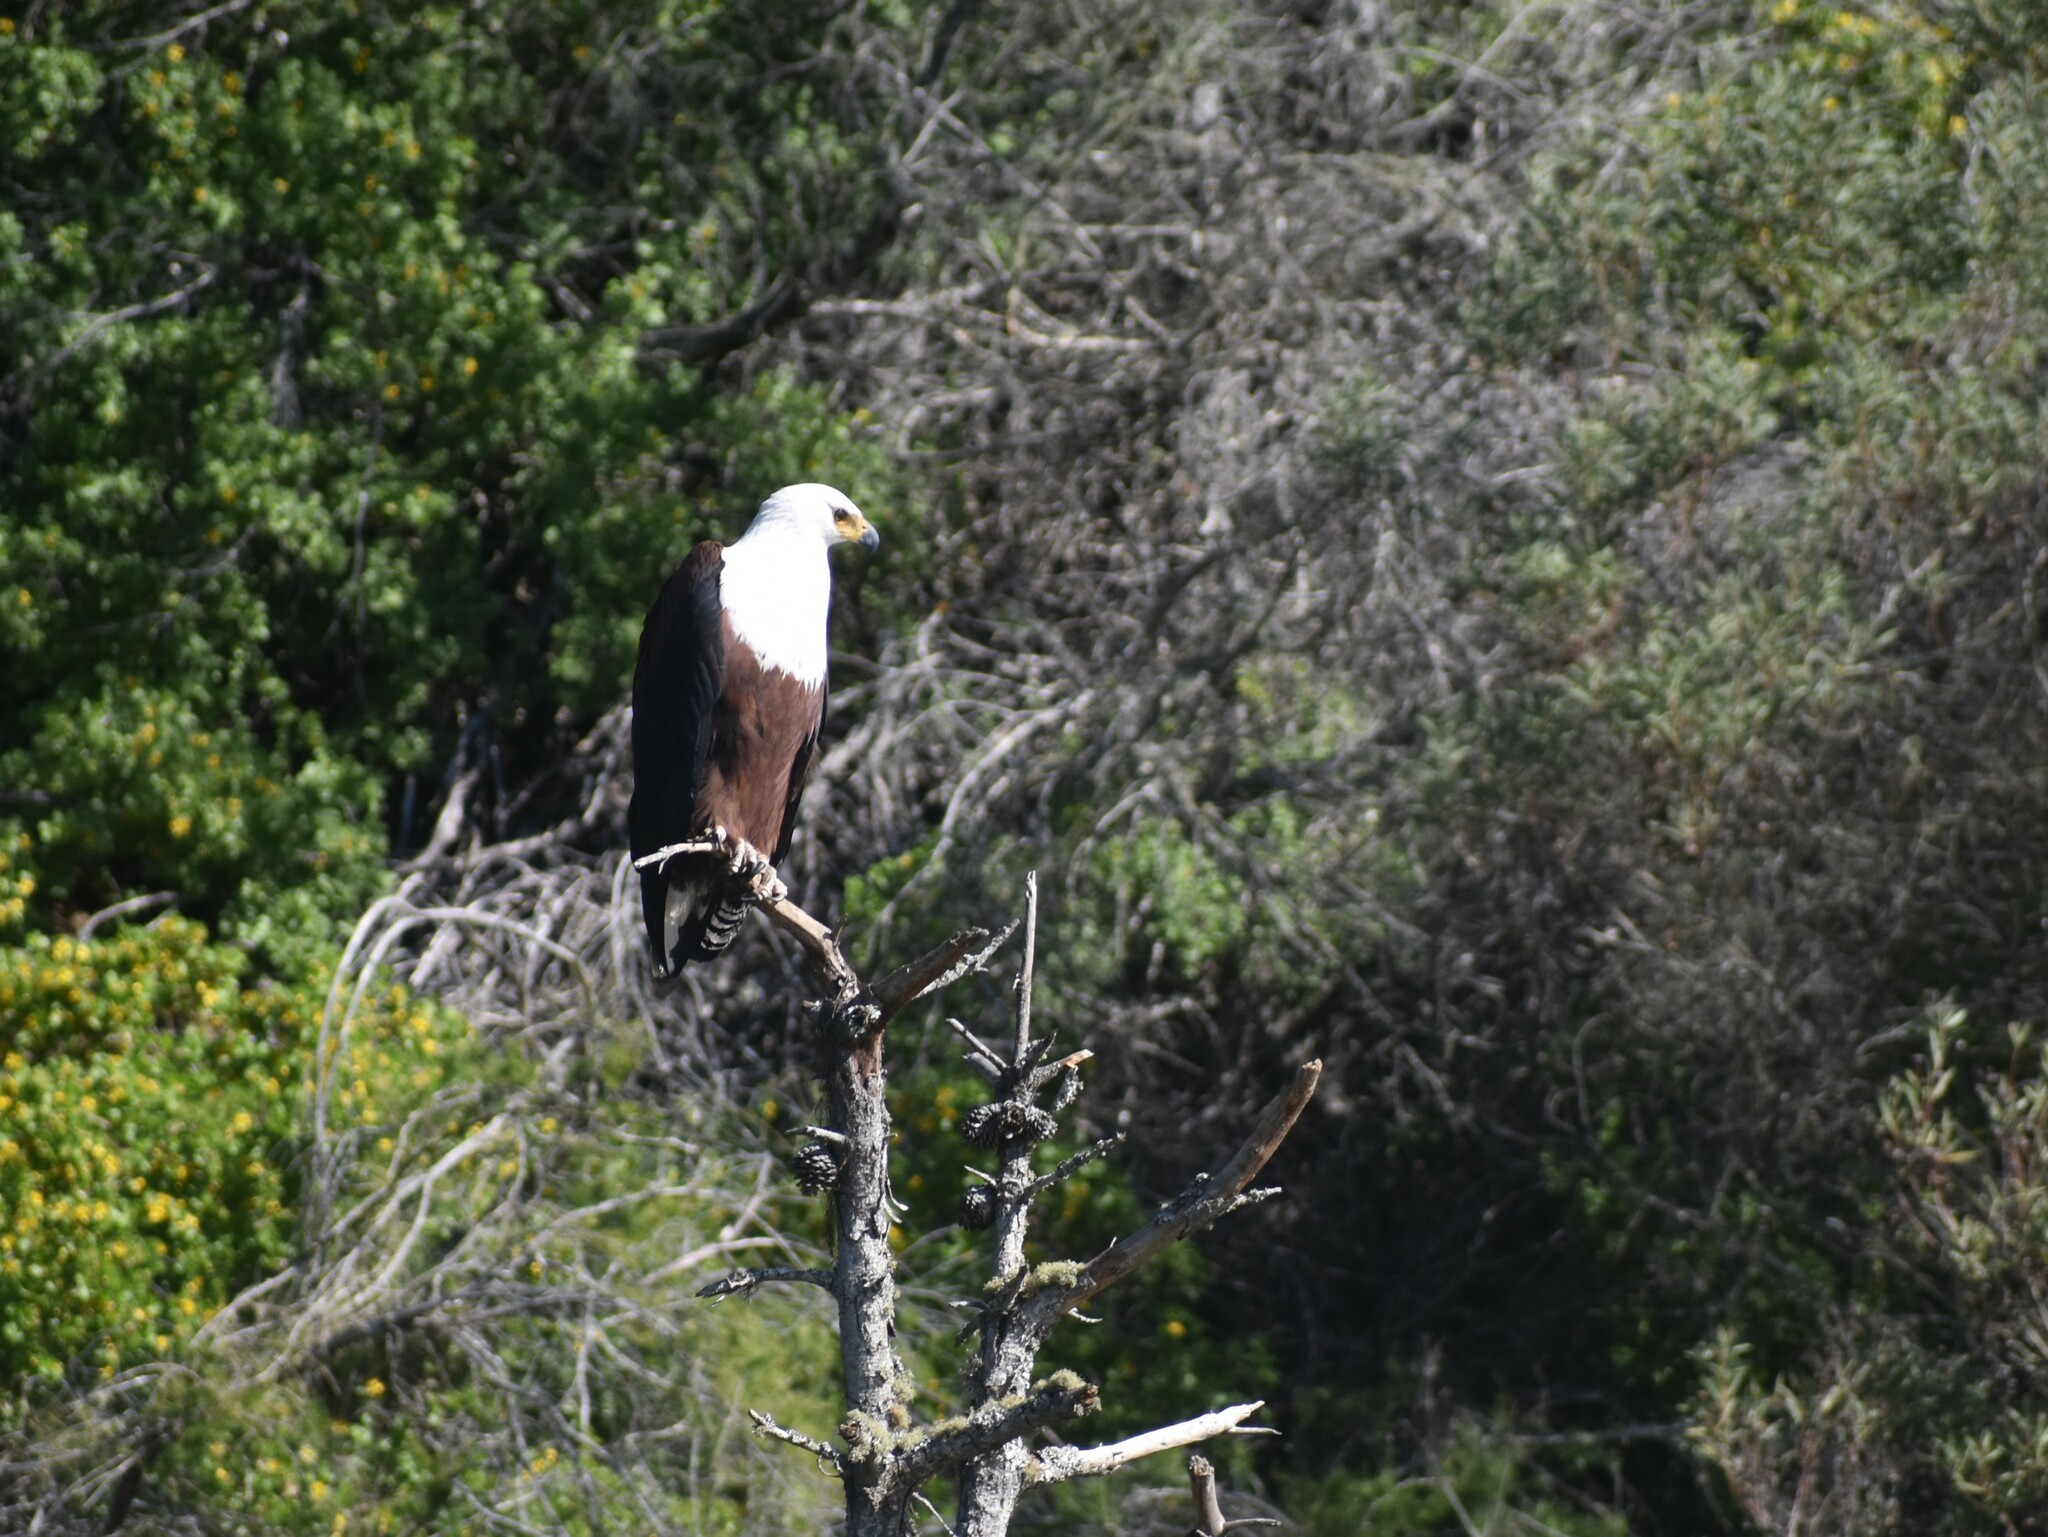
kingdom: Animalia
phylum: Chordata
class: Aves
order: Accipitriformes
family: Accipitridae
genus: Haliaeetus
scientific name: Haliaeetus vocifer
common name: African fish eagle
